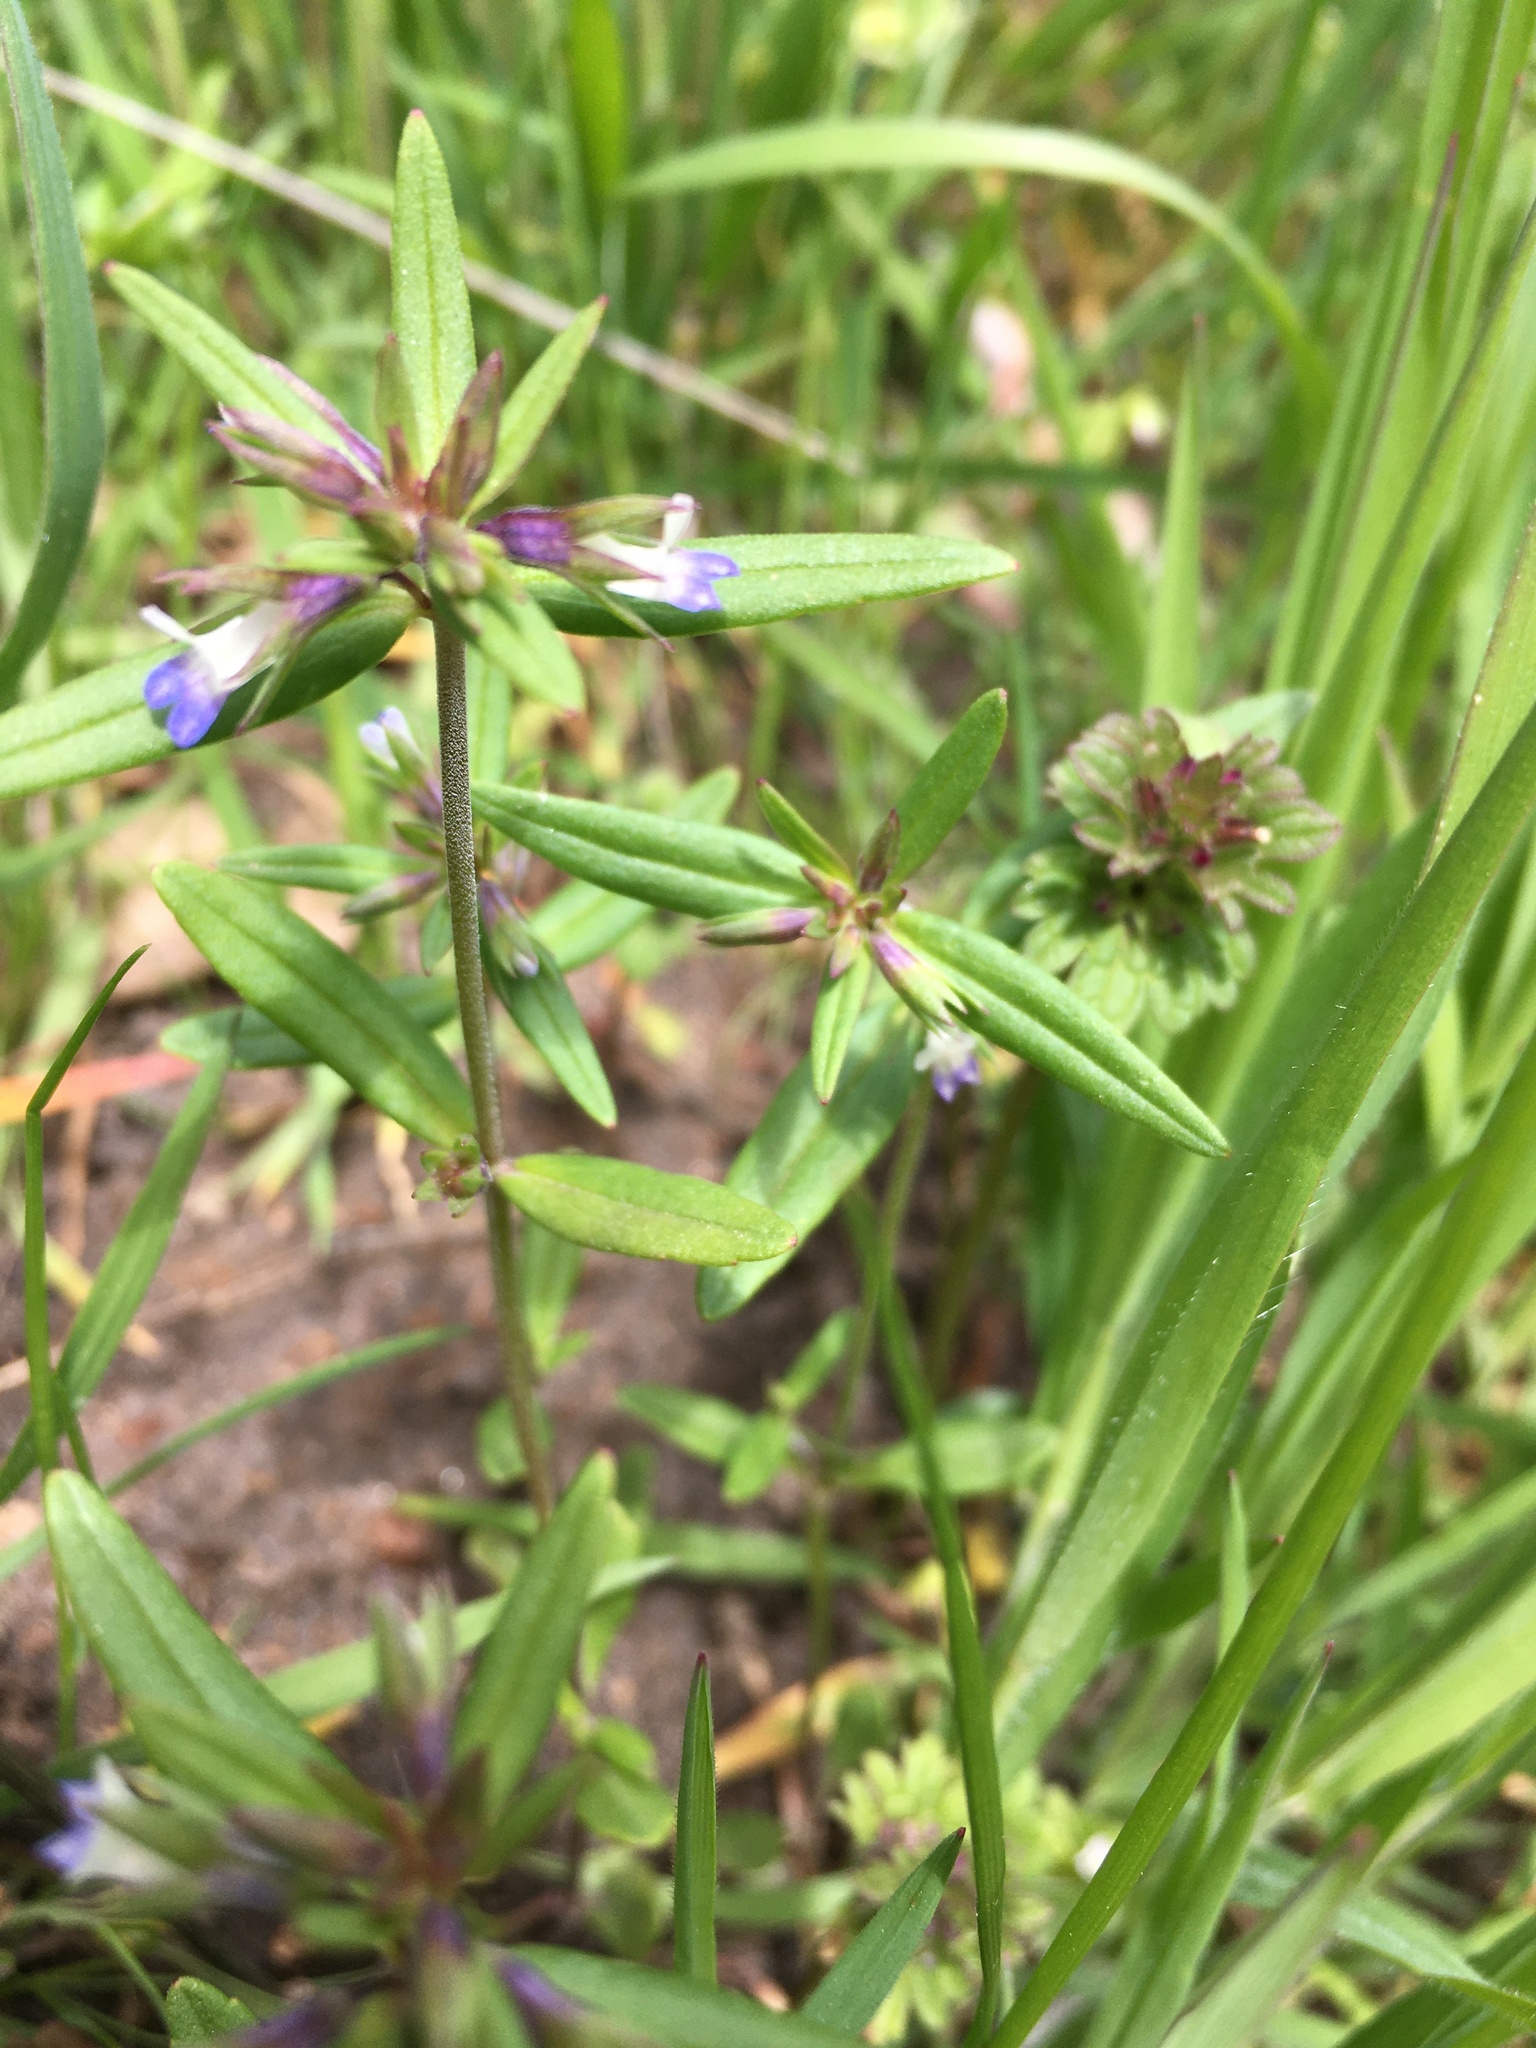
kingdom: Plantae
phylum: Tracheophyta
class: Magnoliopsida
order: Lamiales
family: Plantaginaceae
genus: Collinsia
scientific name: Collinsia parviflora
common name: Blue-lips
